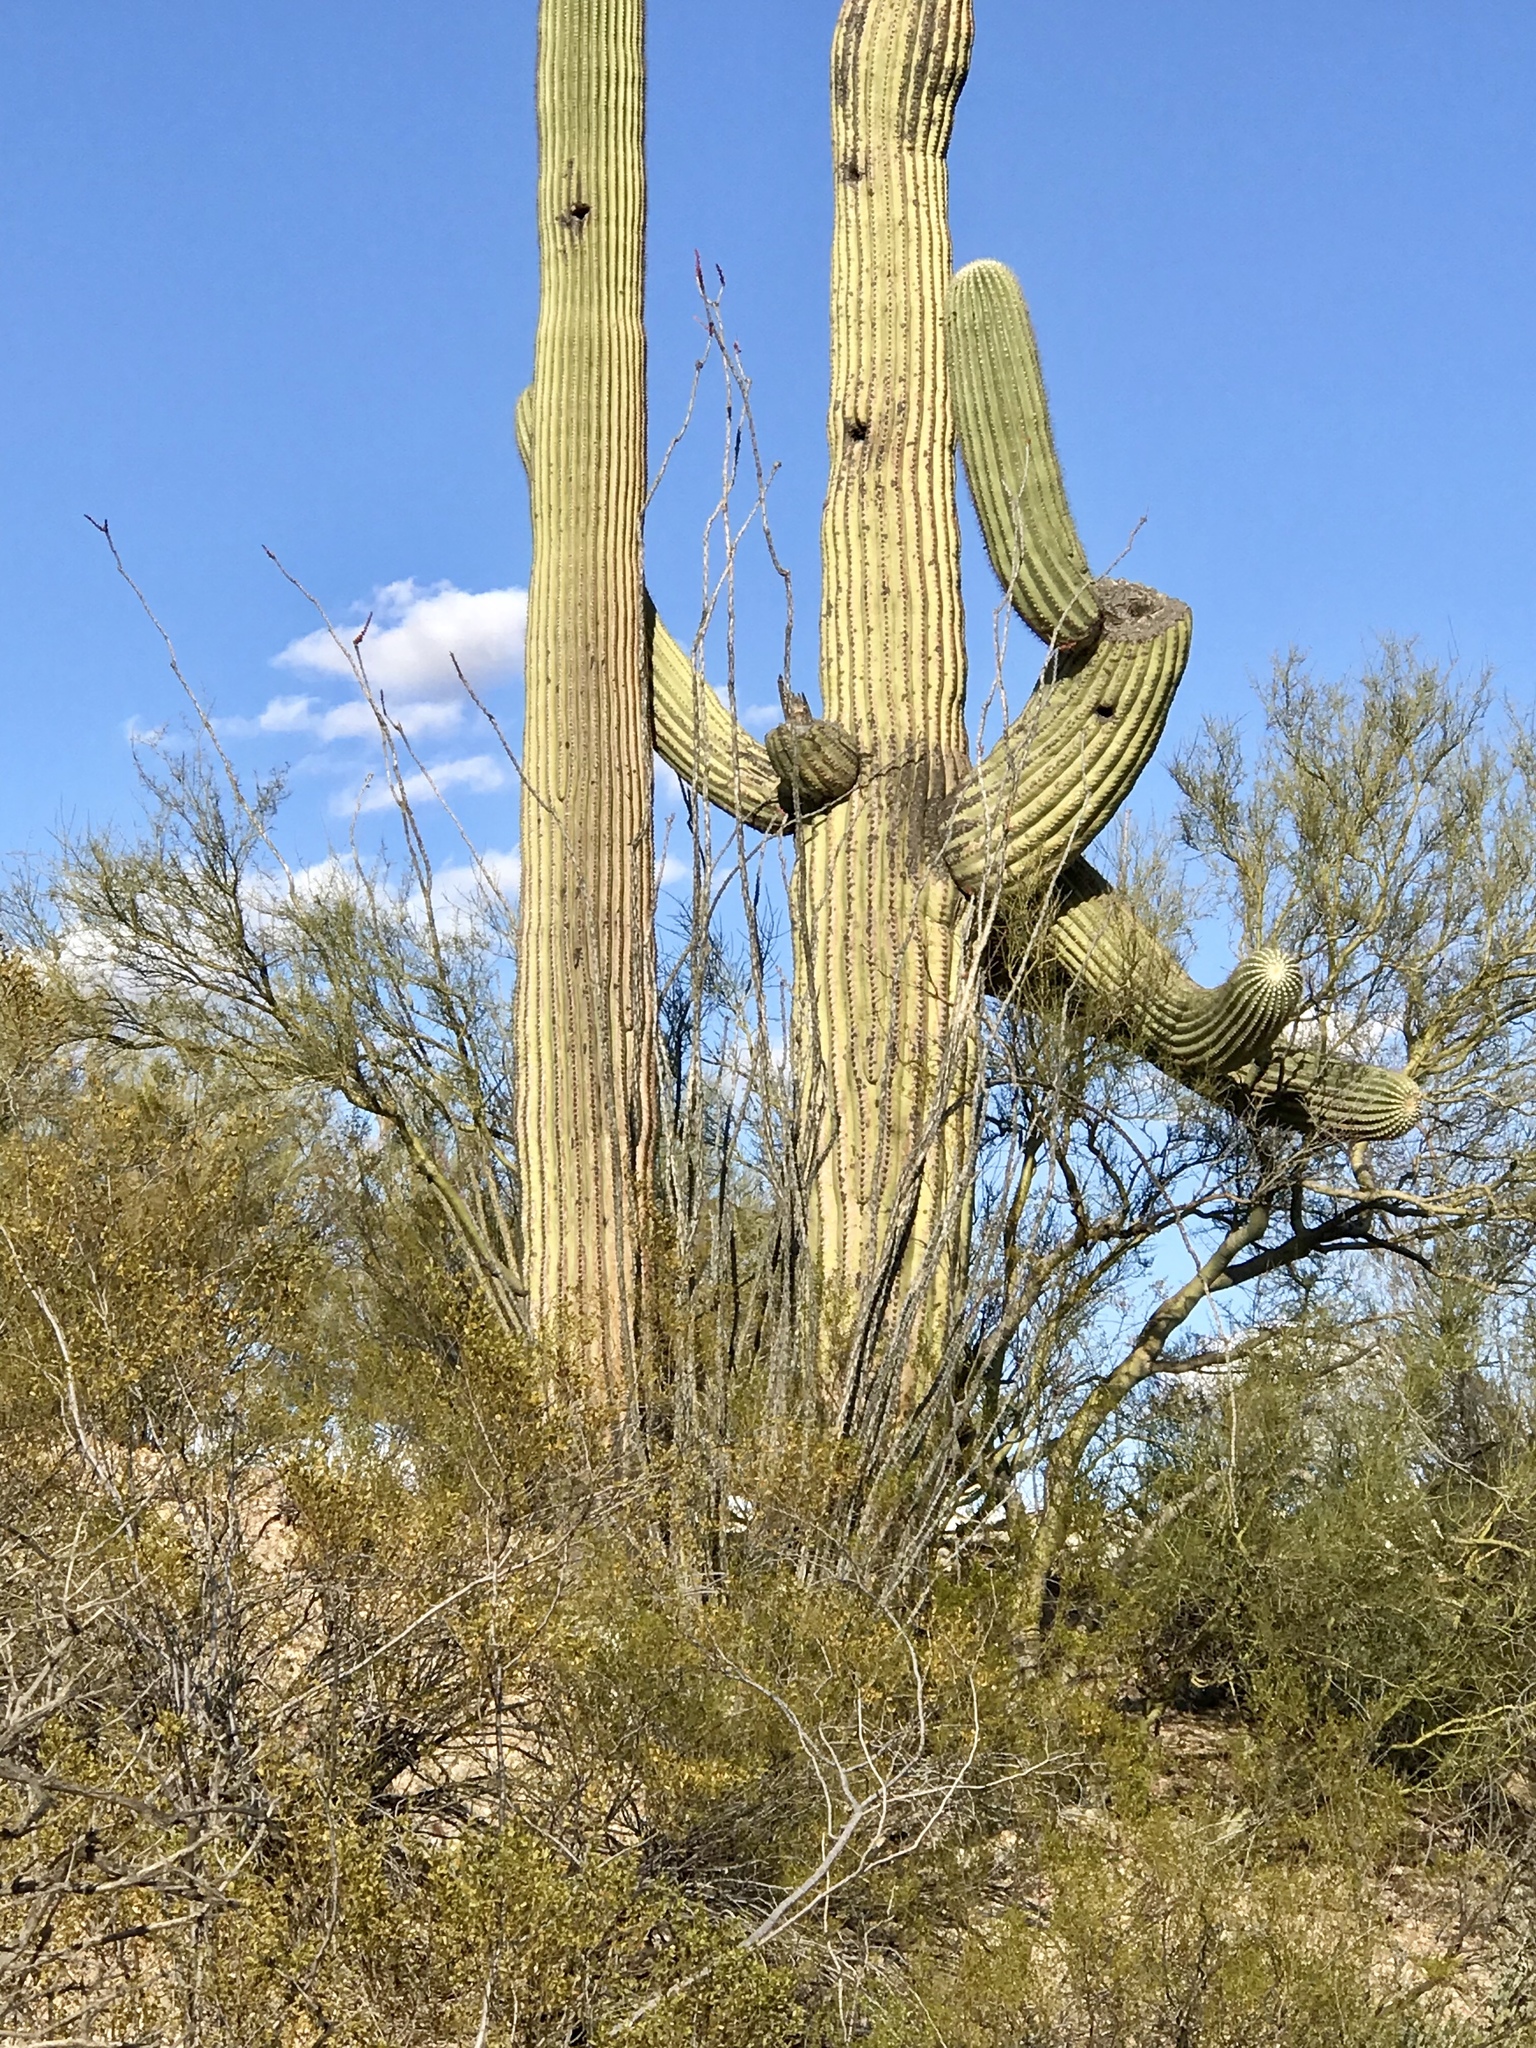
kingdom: Plantae
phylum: Tracheophyta
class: Magnoliopsida
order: Ericales
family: Fouquieriaceae
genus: Fouquieria
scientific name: Fouquieria splendens
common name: Vine-cactus
